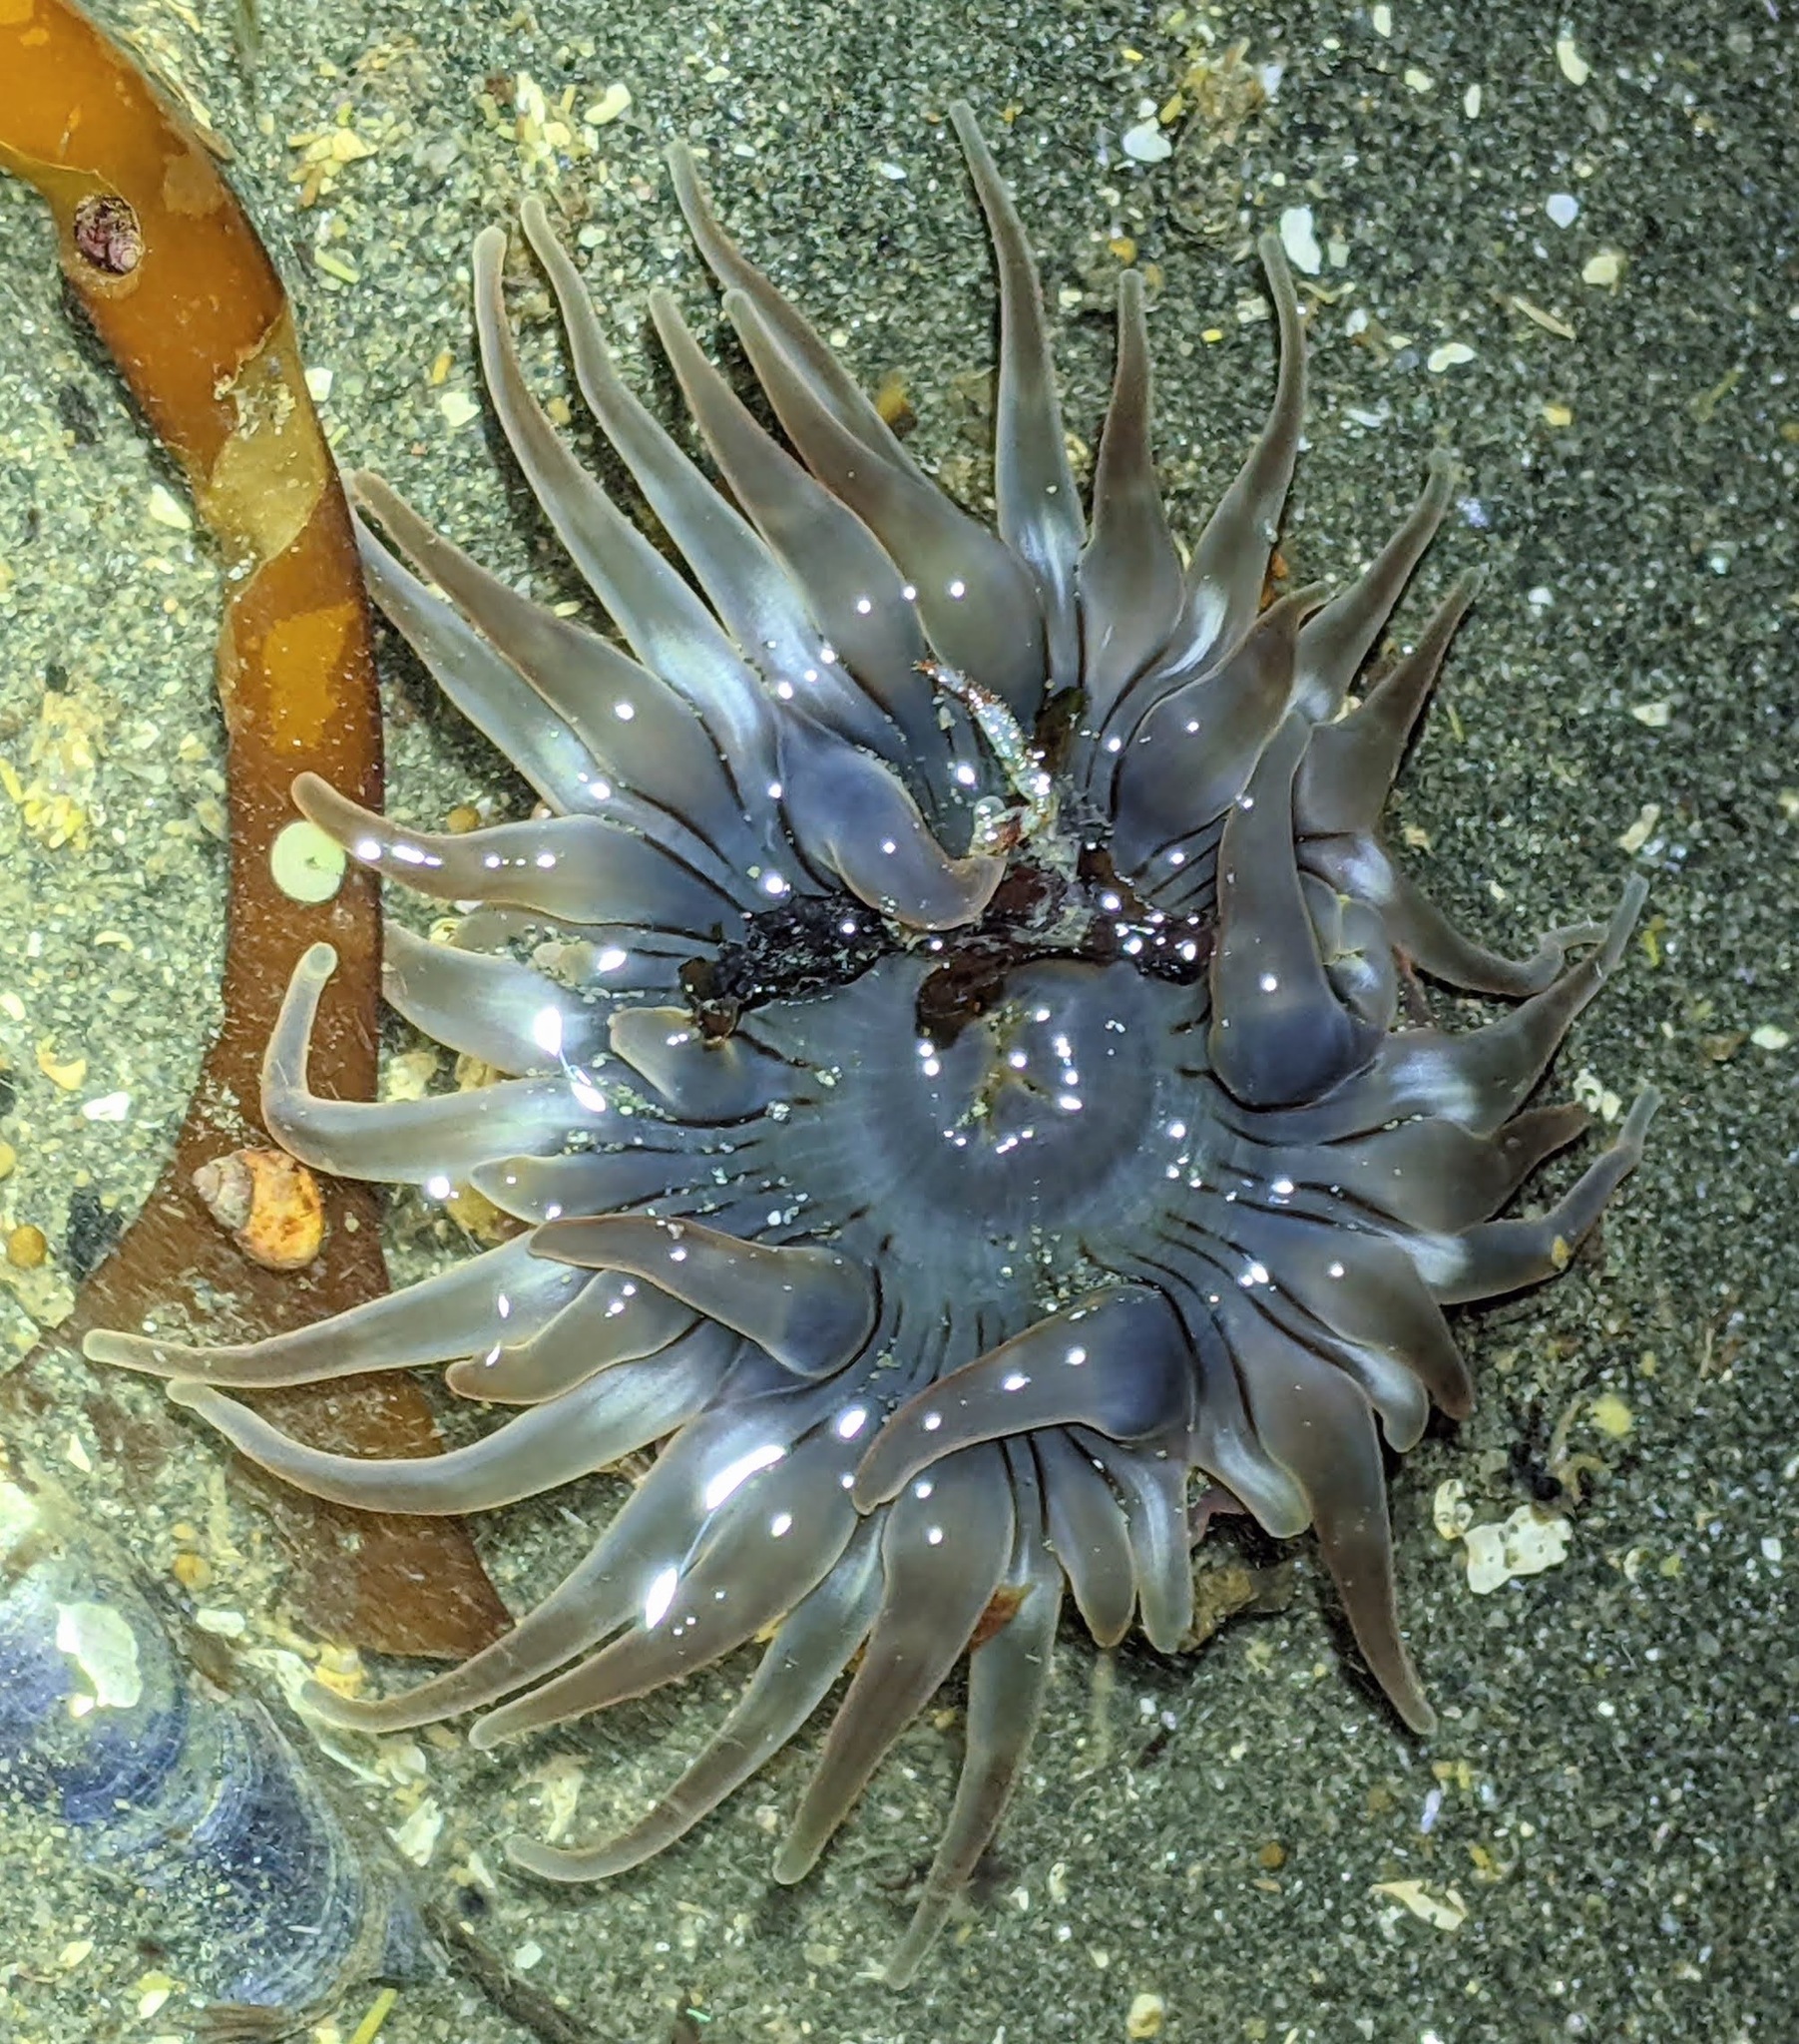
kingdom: Animalia
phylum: Cnidaria
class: Anthozoa
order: Actiniaria
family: Actiniidae
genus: Anthopleura
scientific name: Anthopleura artemisia
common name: Buried sea anemone
